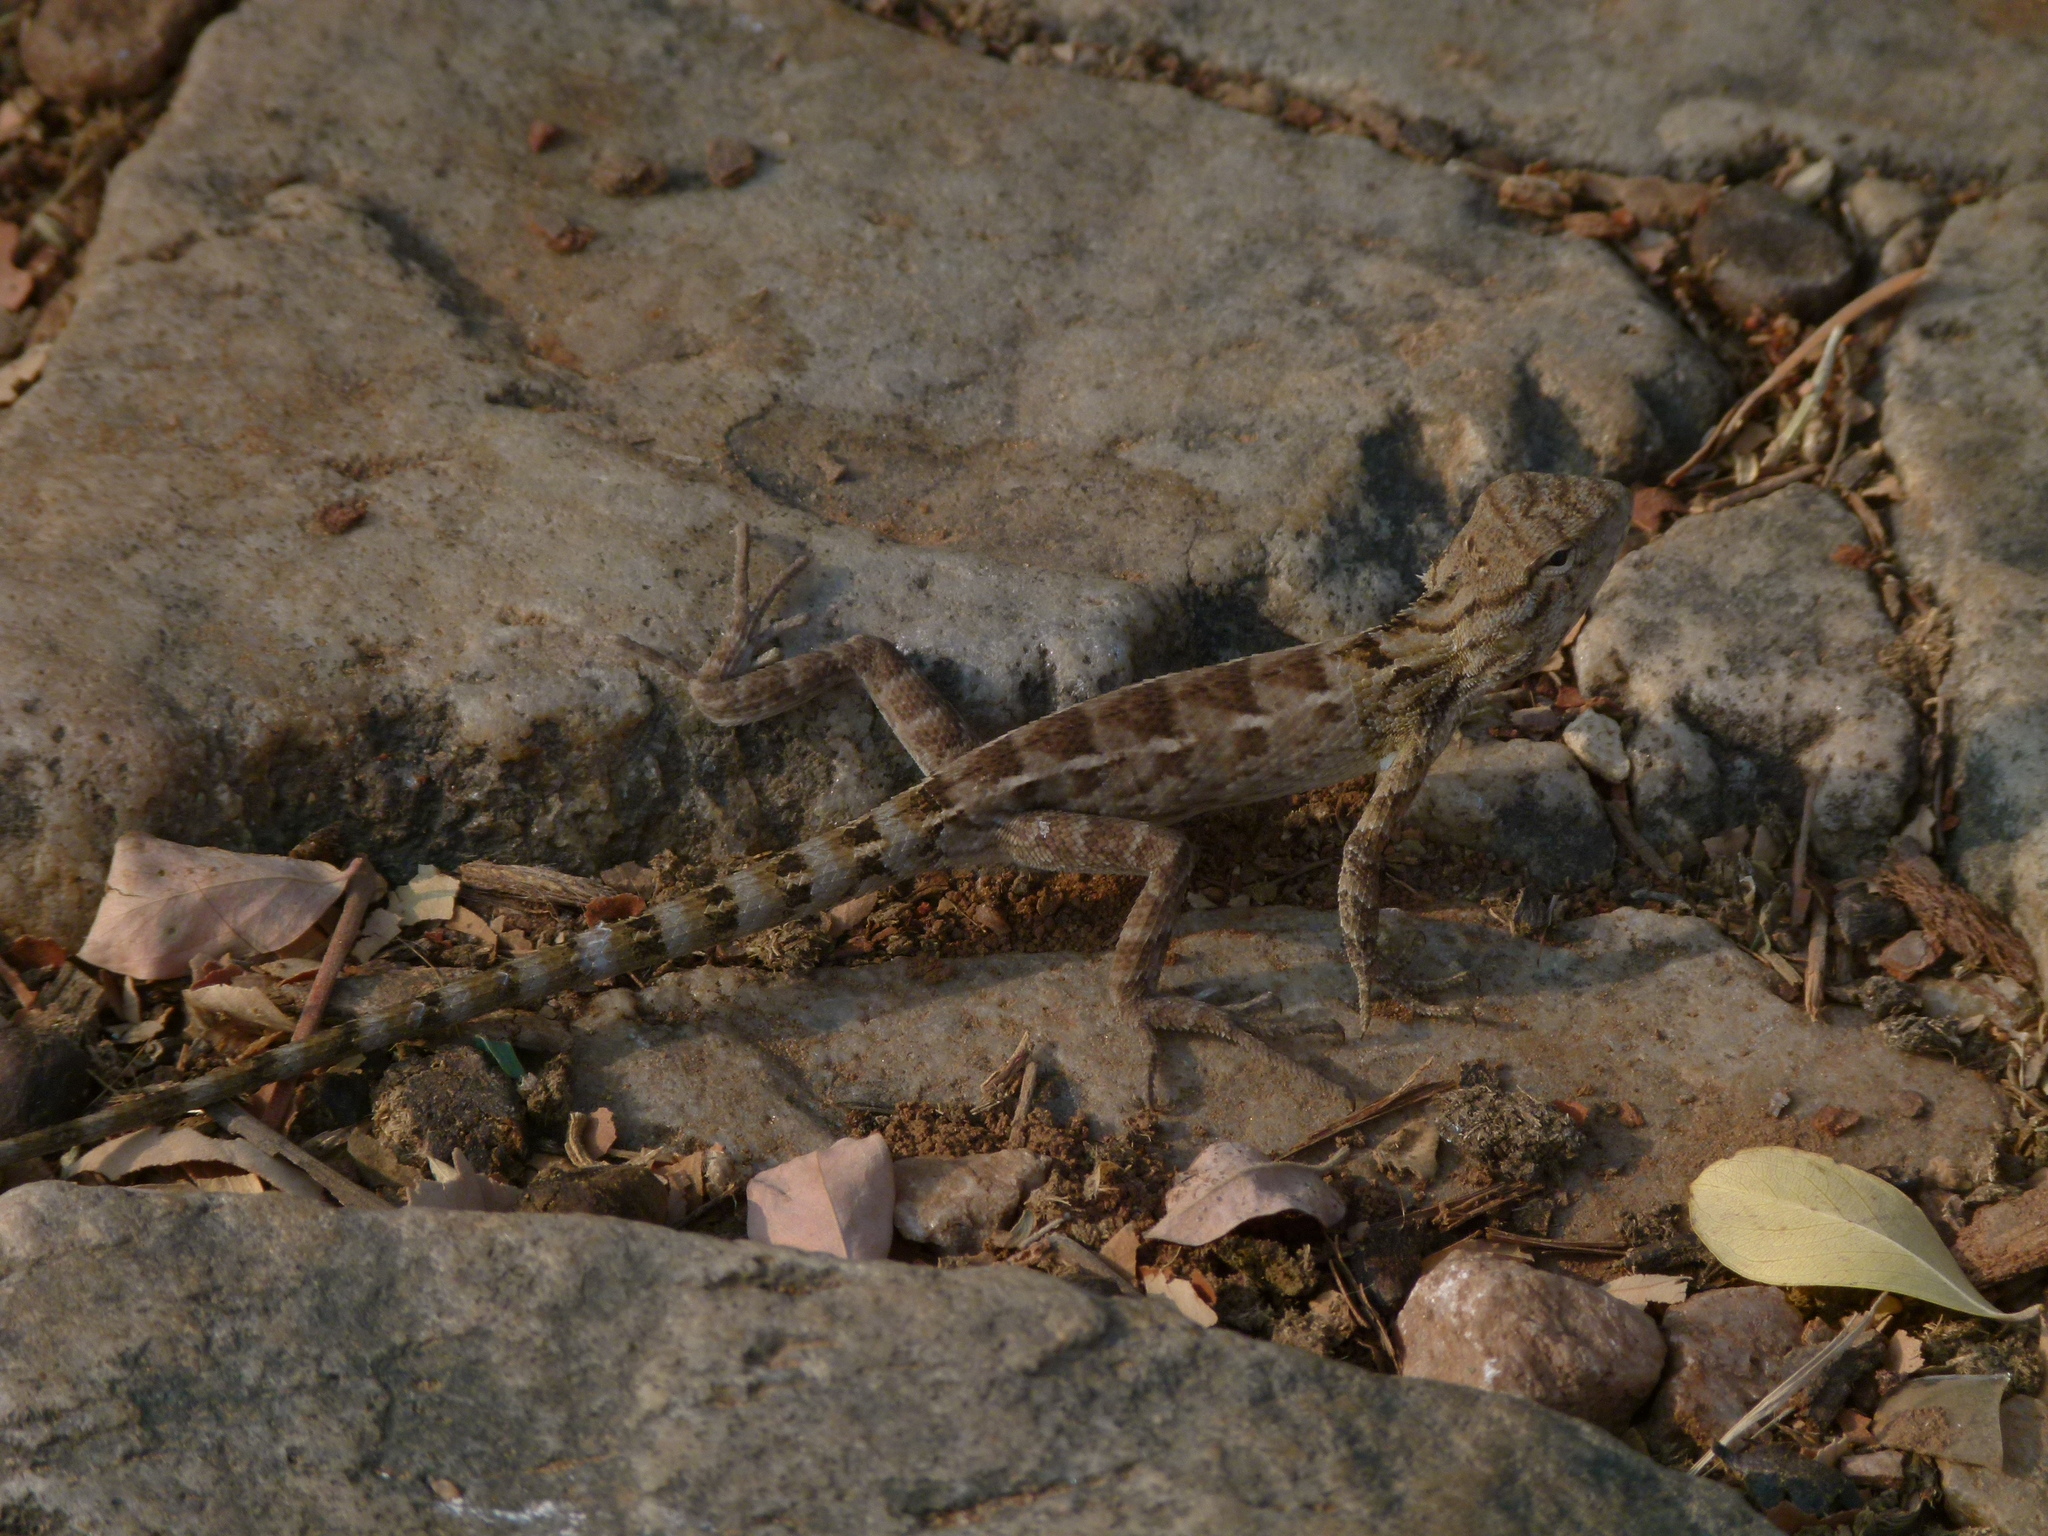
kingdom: Animalia
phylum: Chordata
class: Squamata
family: Agamidae
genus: Calotes
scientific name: Calotes versicolor
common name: Oriental garden lizard
